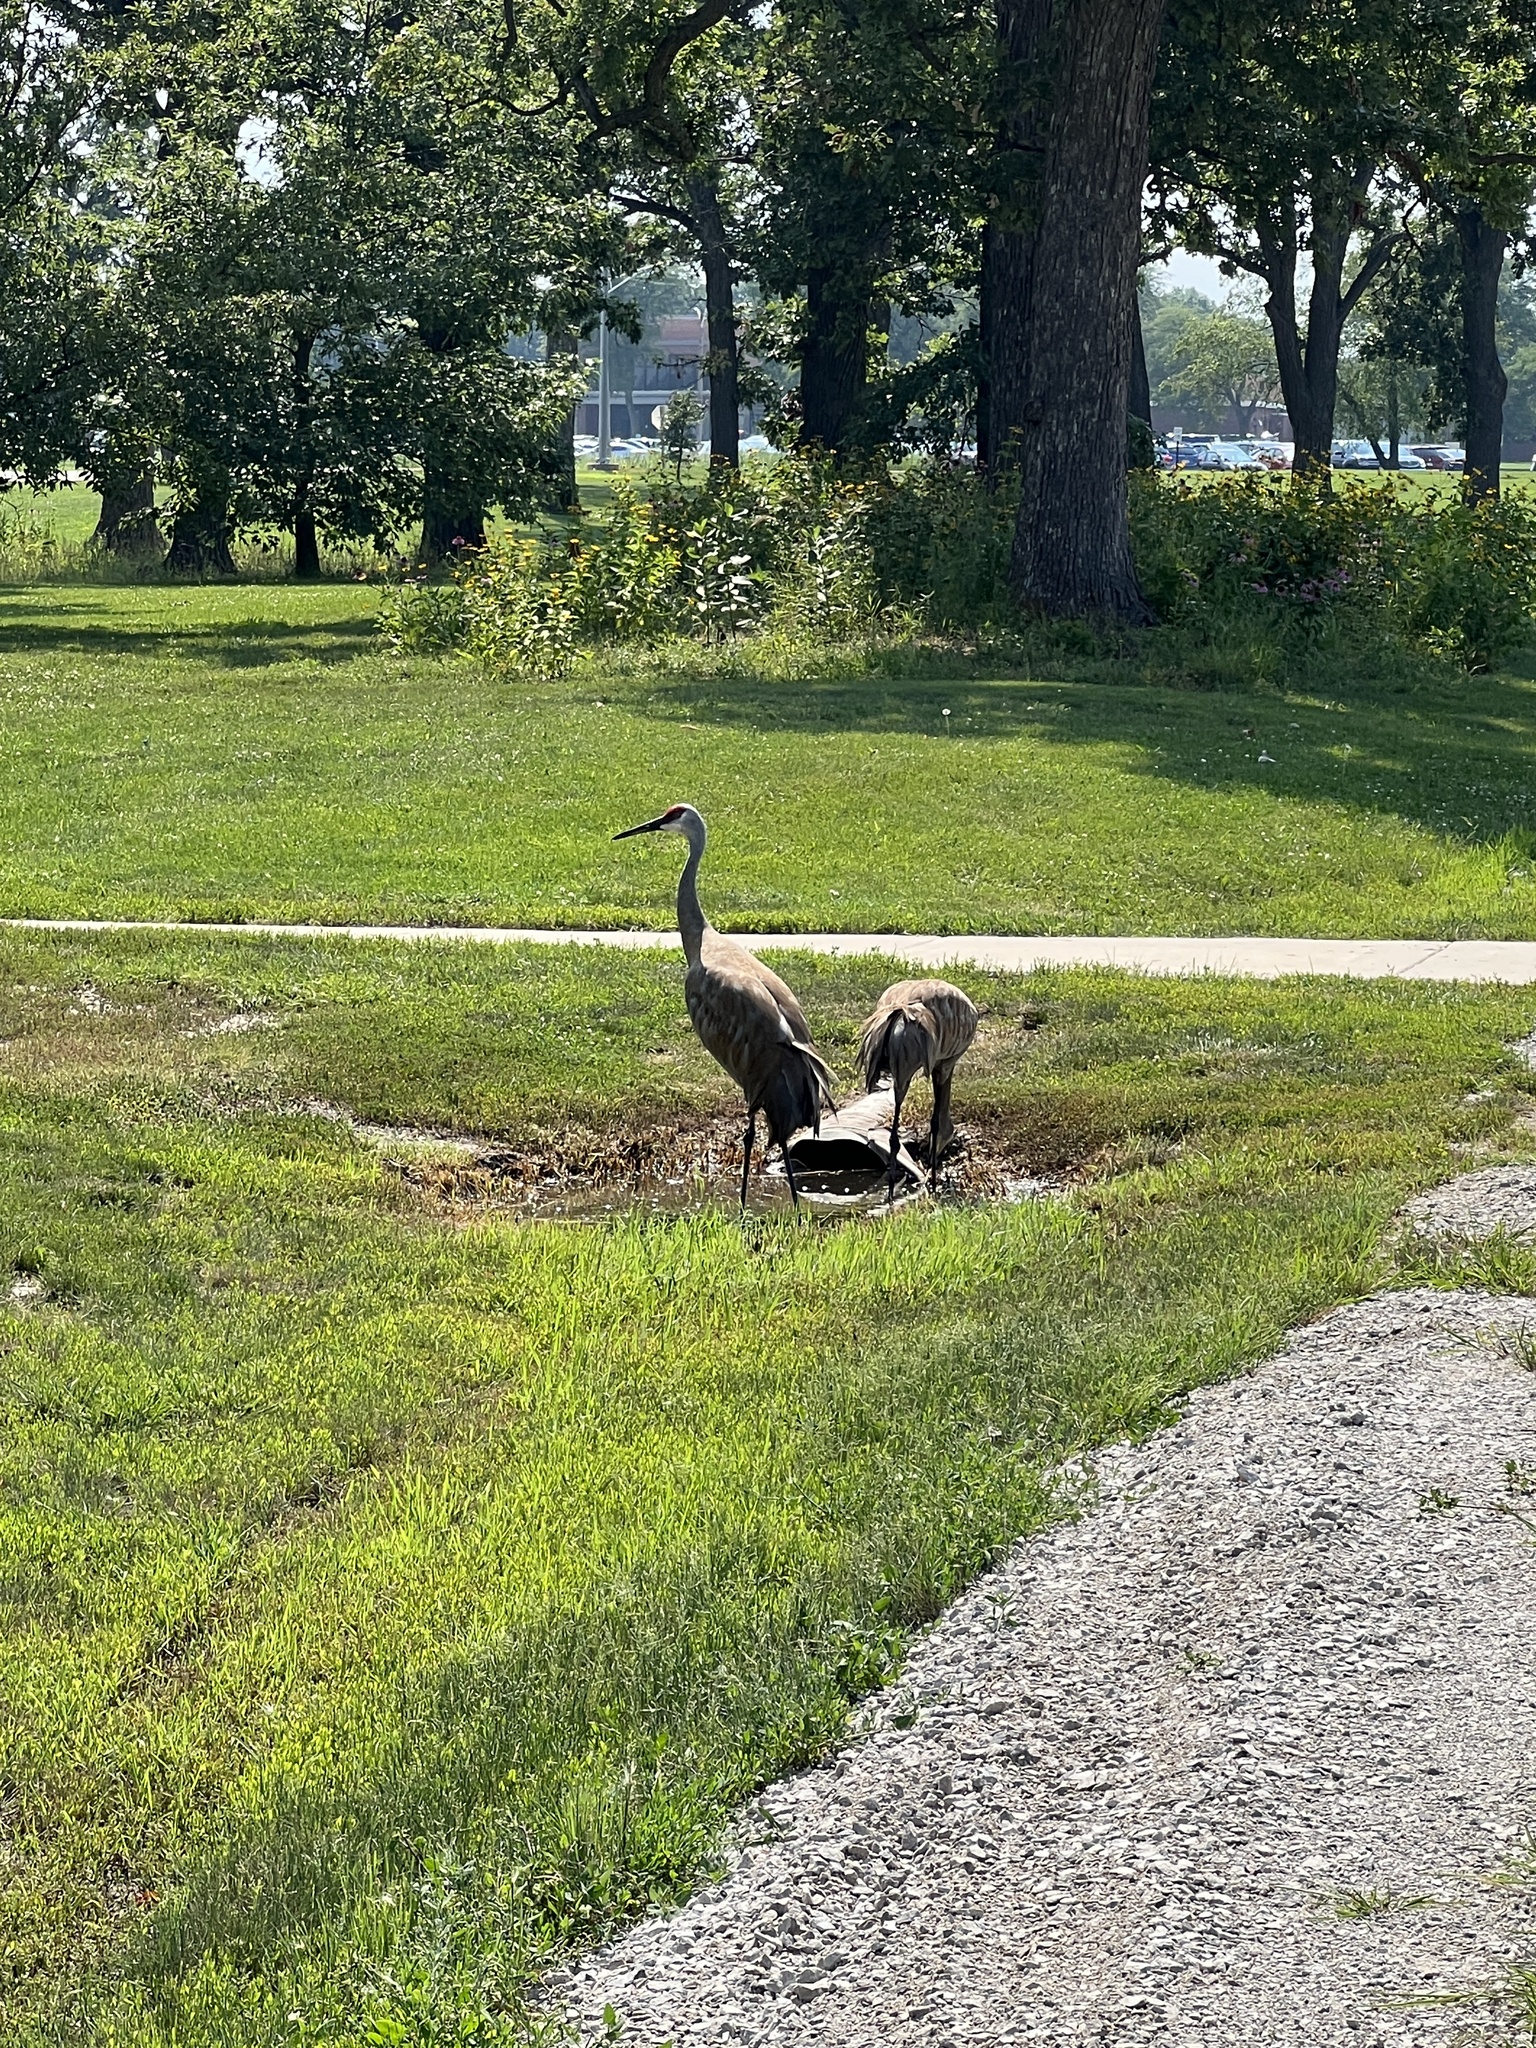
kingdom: Animalia
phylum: Chordata
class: Aves
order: Gruiformes
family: Gruidae
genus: Grus
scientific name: Grus canadensis
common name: Sandhill crane
